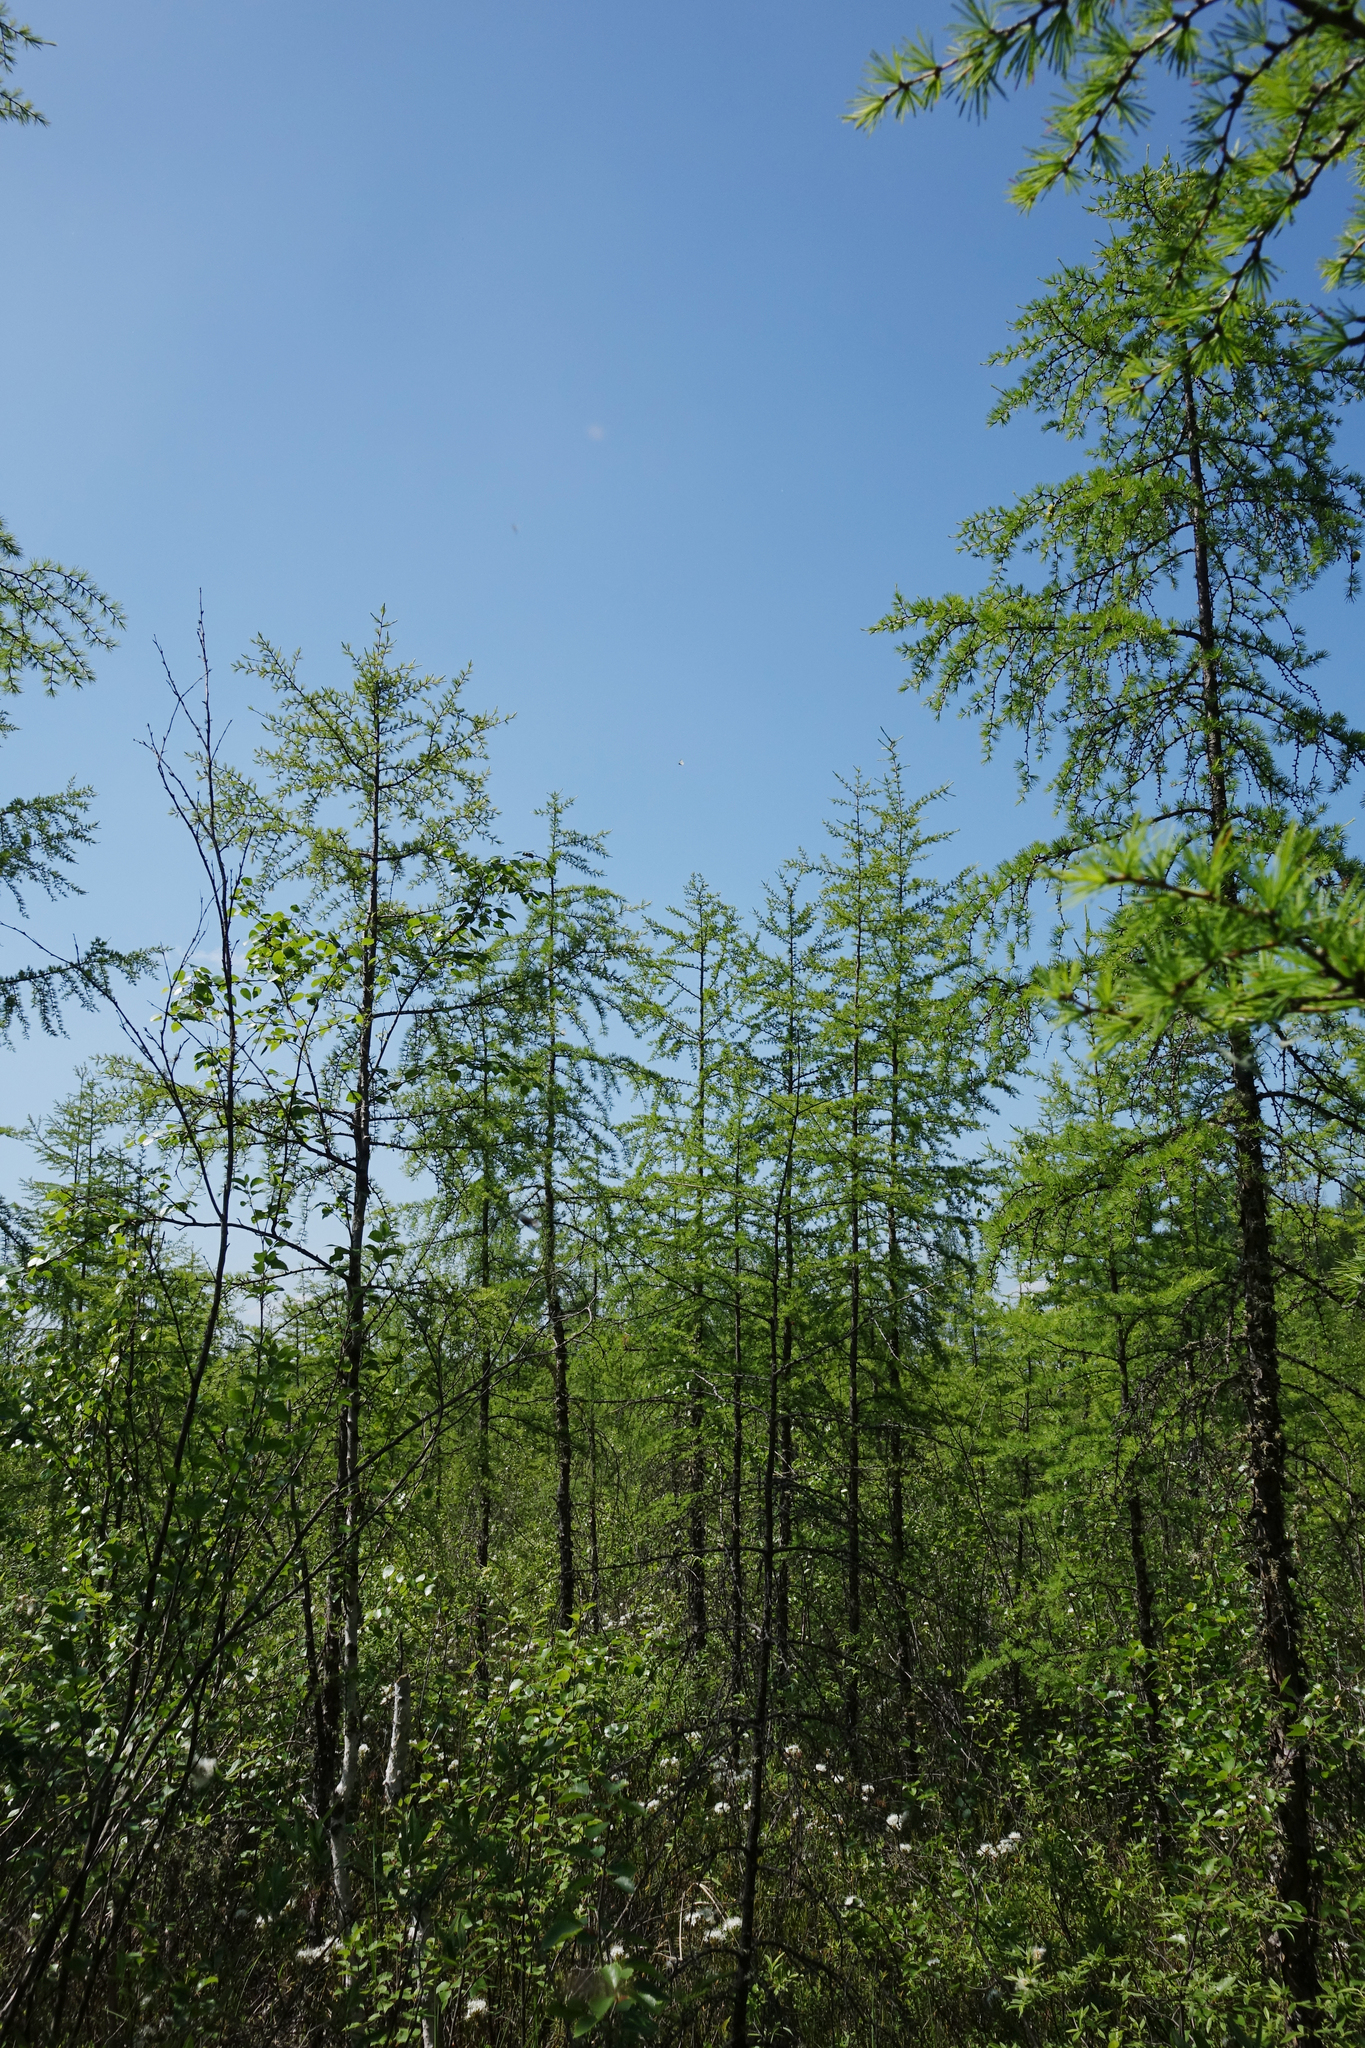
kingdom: Plantae
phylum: Tracheophyta
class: Pinopsida
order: Pinales
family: Pinaceae
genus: Larix
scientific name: Larix gmelinii
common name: Dahurian larch
